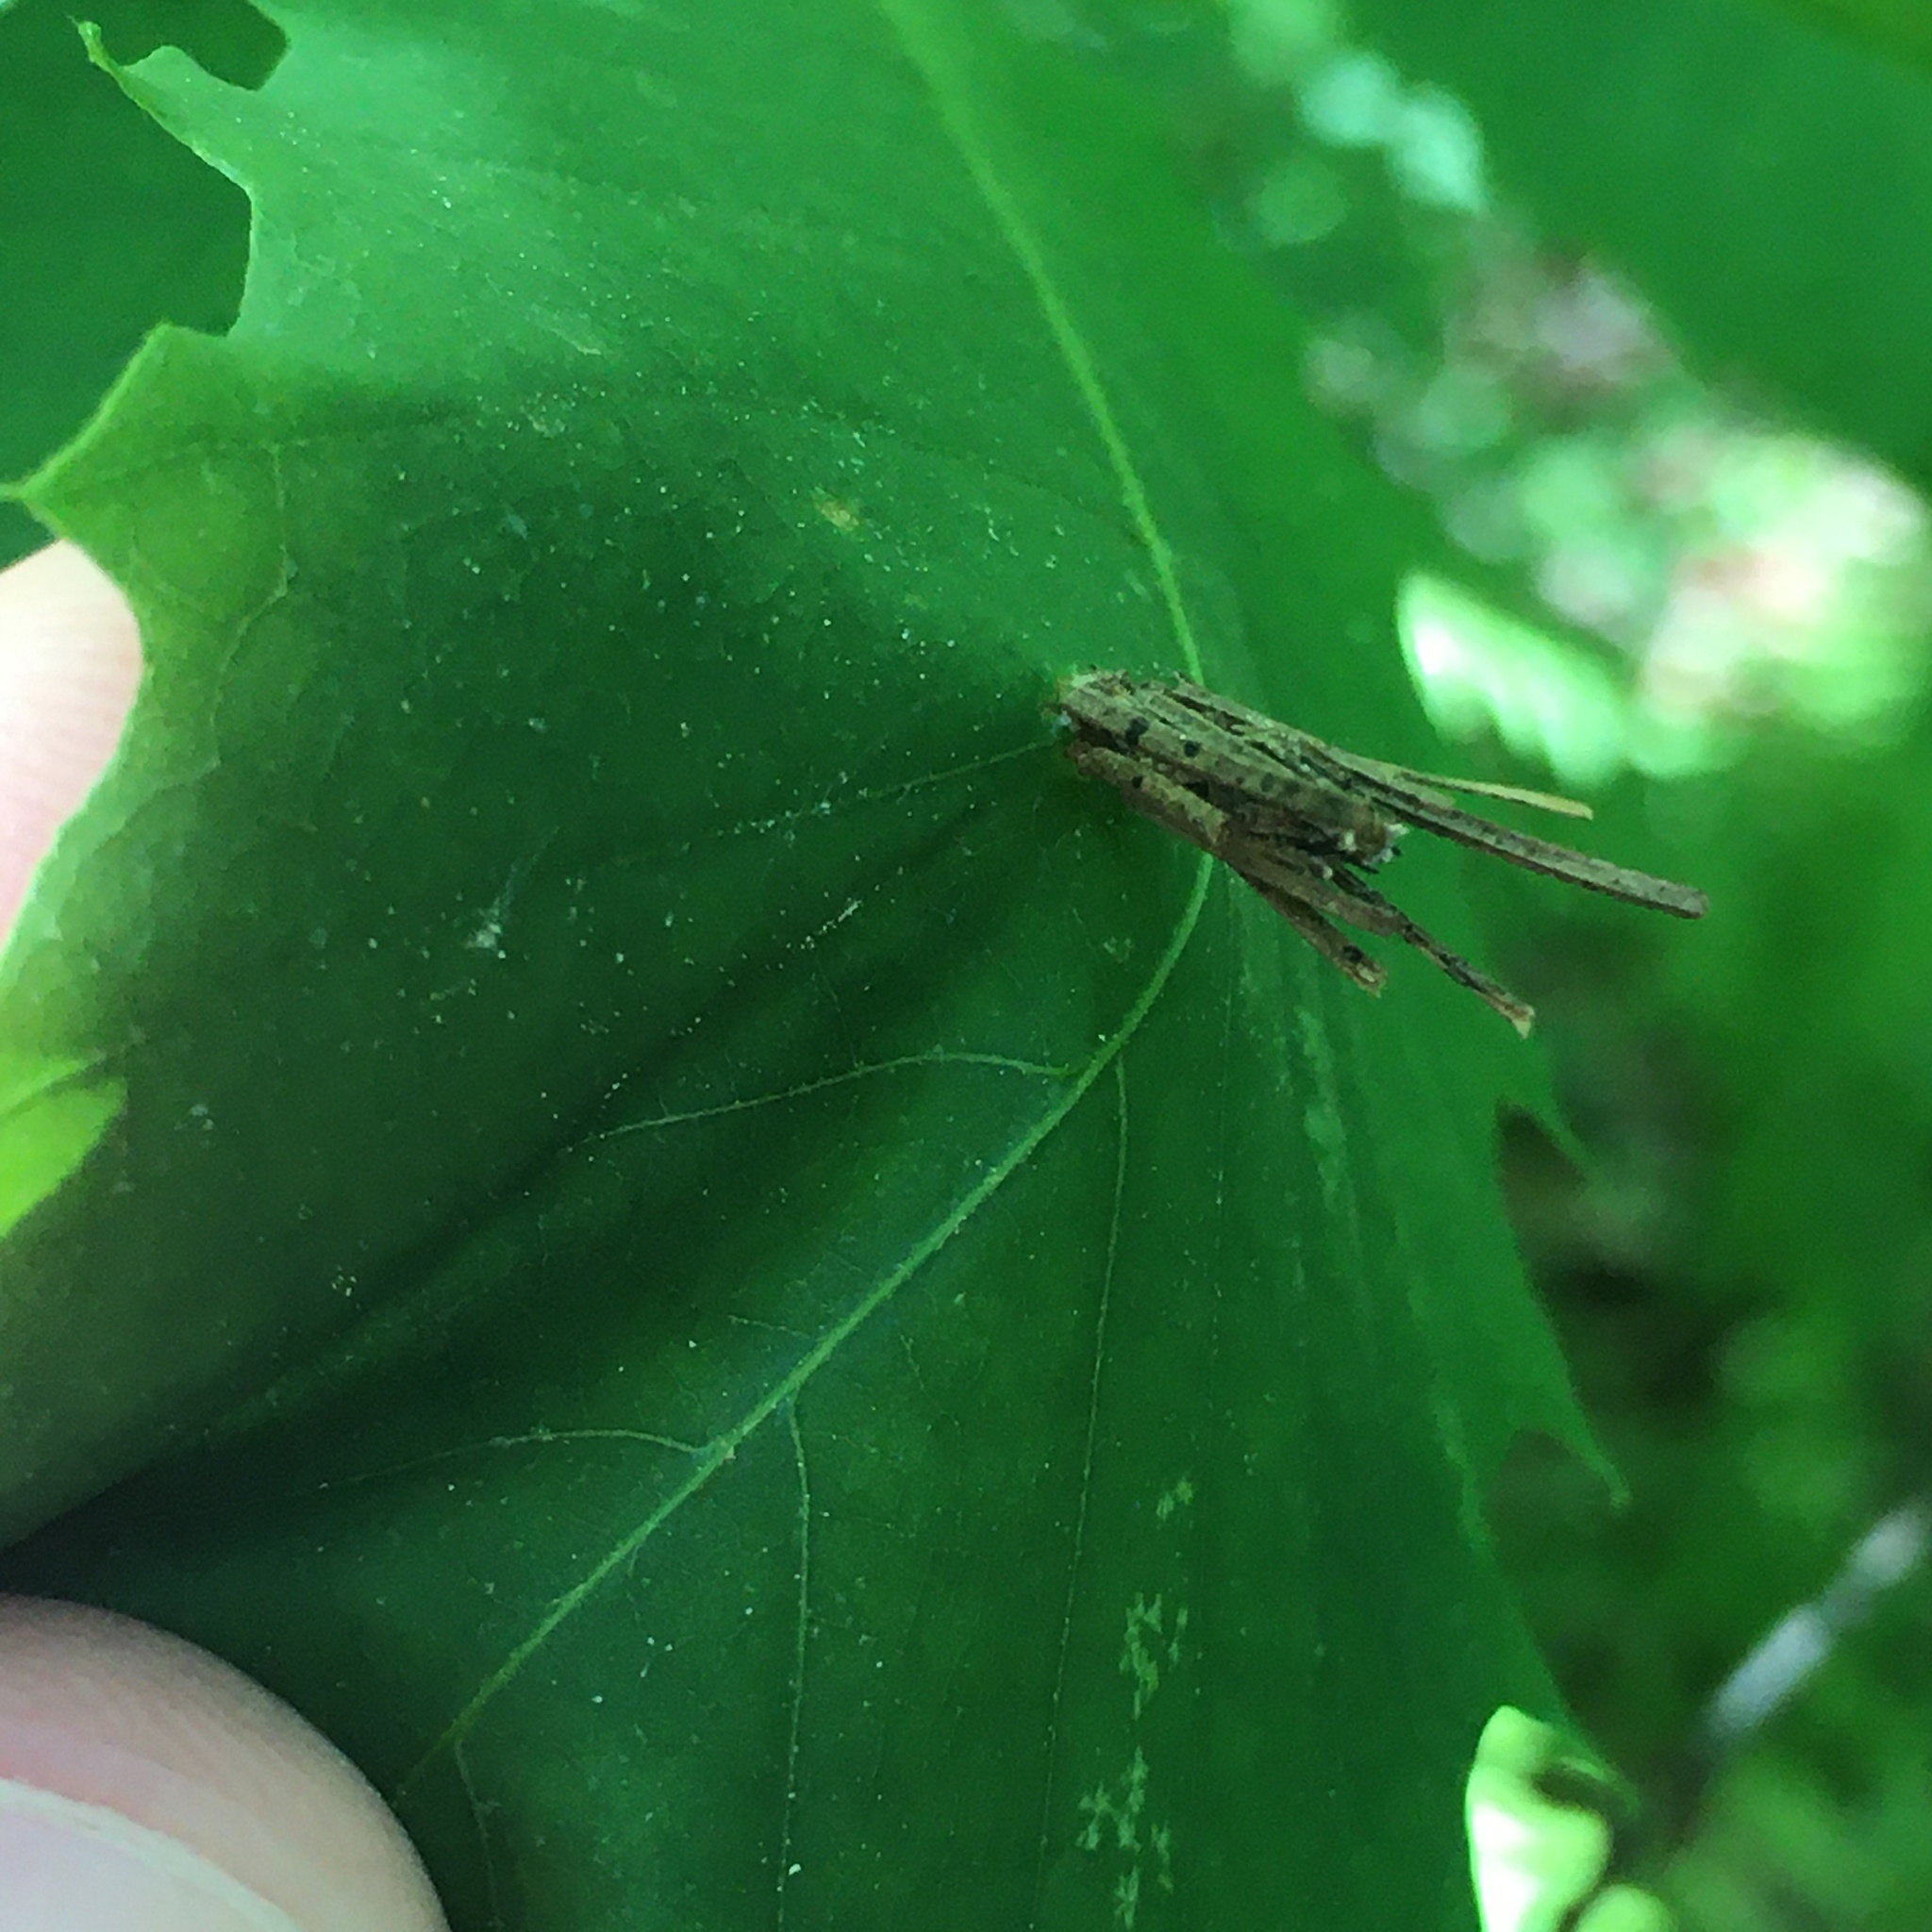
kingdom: Animalia
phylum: Arthropoda
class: Insecta
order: Lepidoptera
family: Psychidae
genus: Psyche
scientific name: Psyche casta
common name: Common sweep
